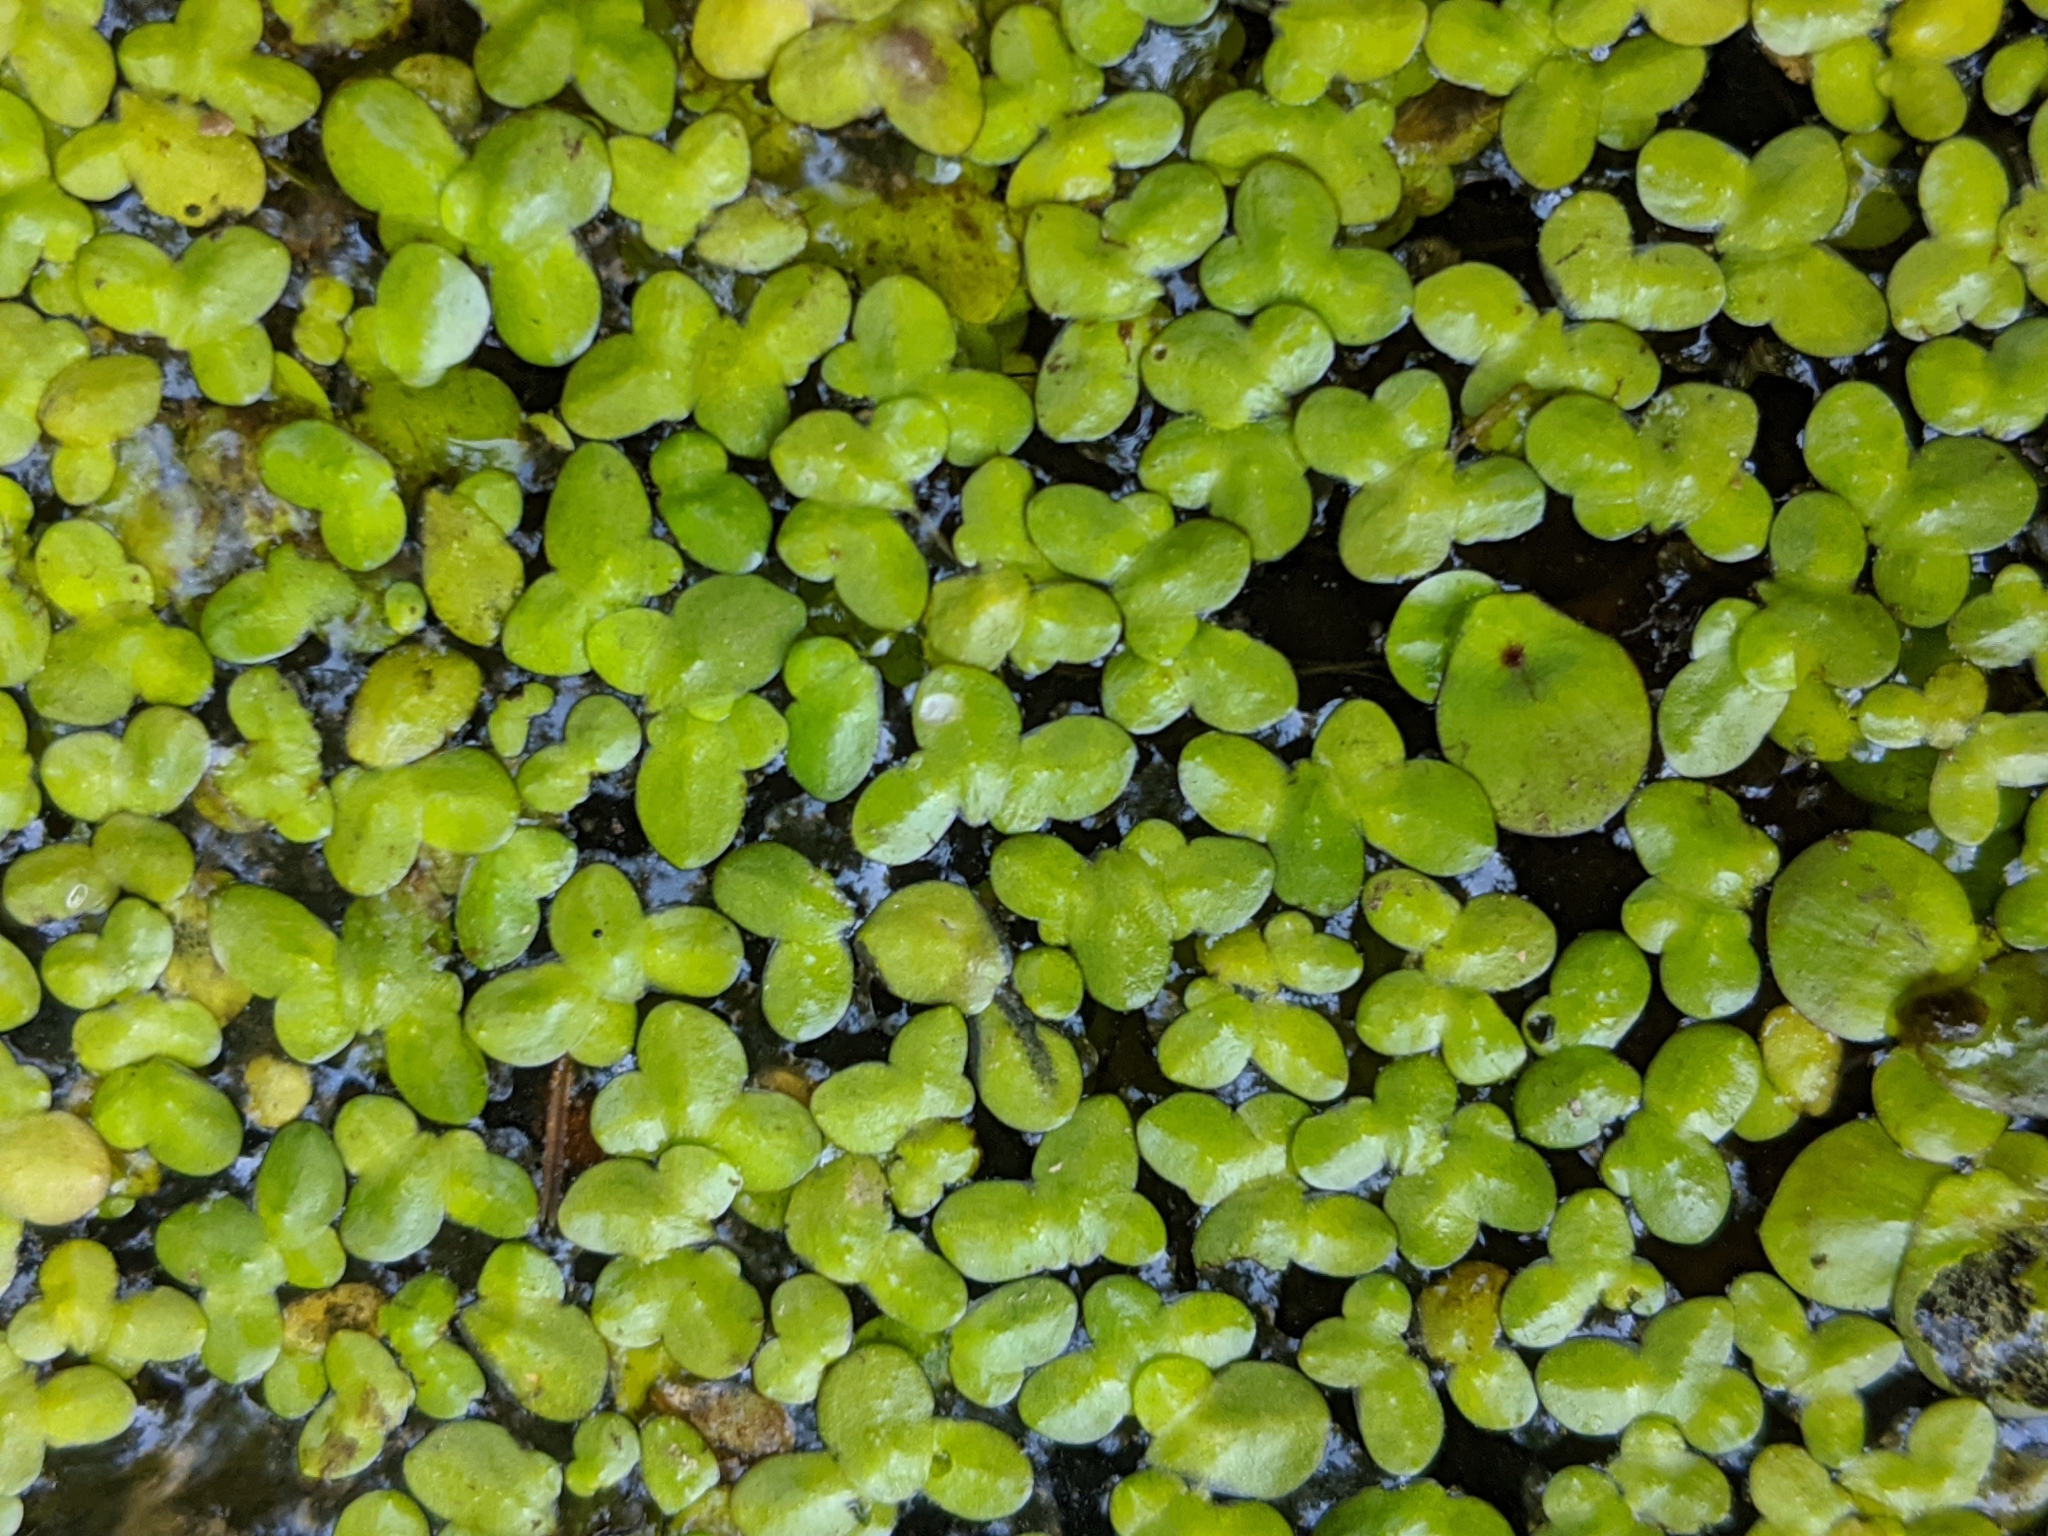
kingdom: Plantae
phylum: Tracheophyta
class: Liliopsida
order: Alismatales
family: Araceae
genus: Lemna
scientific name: Lemna minor
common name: Common duckweed
